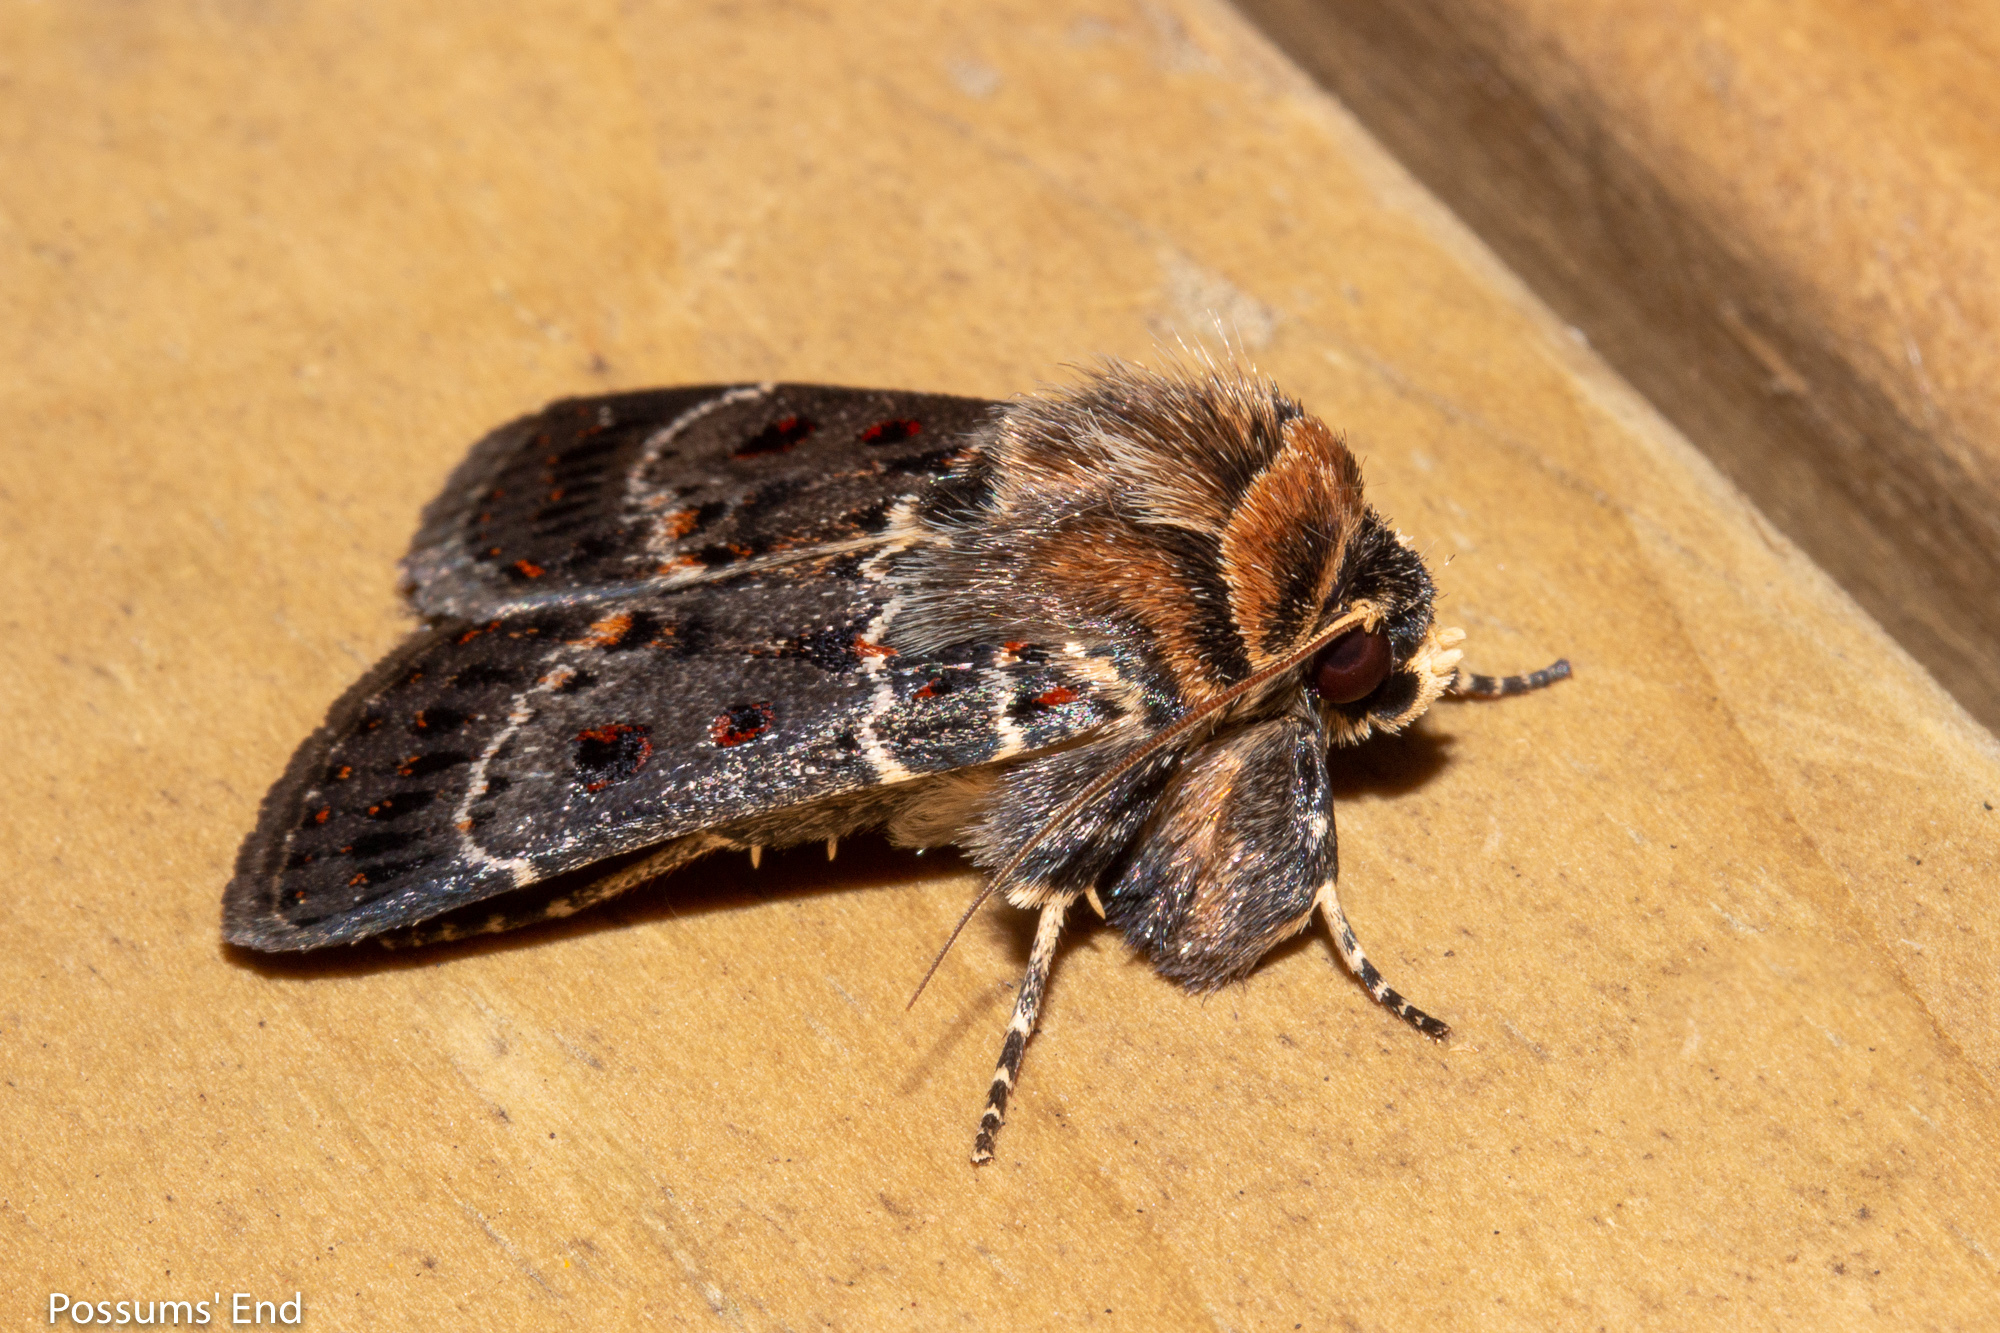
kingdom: Animalia
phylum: Arthropoda
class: Insecta
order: Lepidoptera
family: Noctuidae
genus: Proteuxoa
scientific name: Proteuxoa sanguinipuncta
